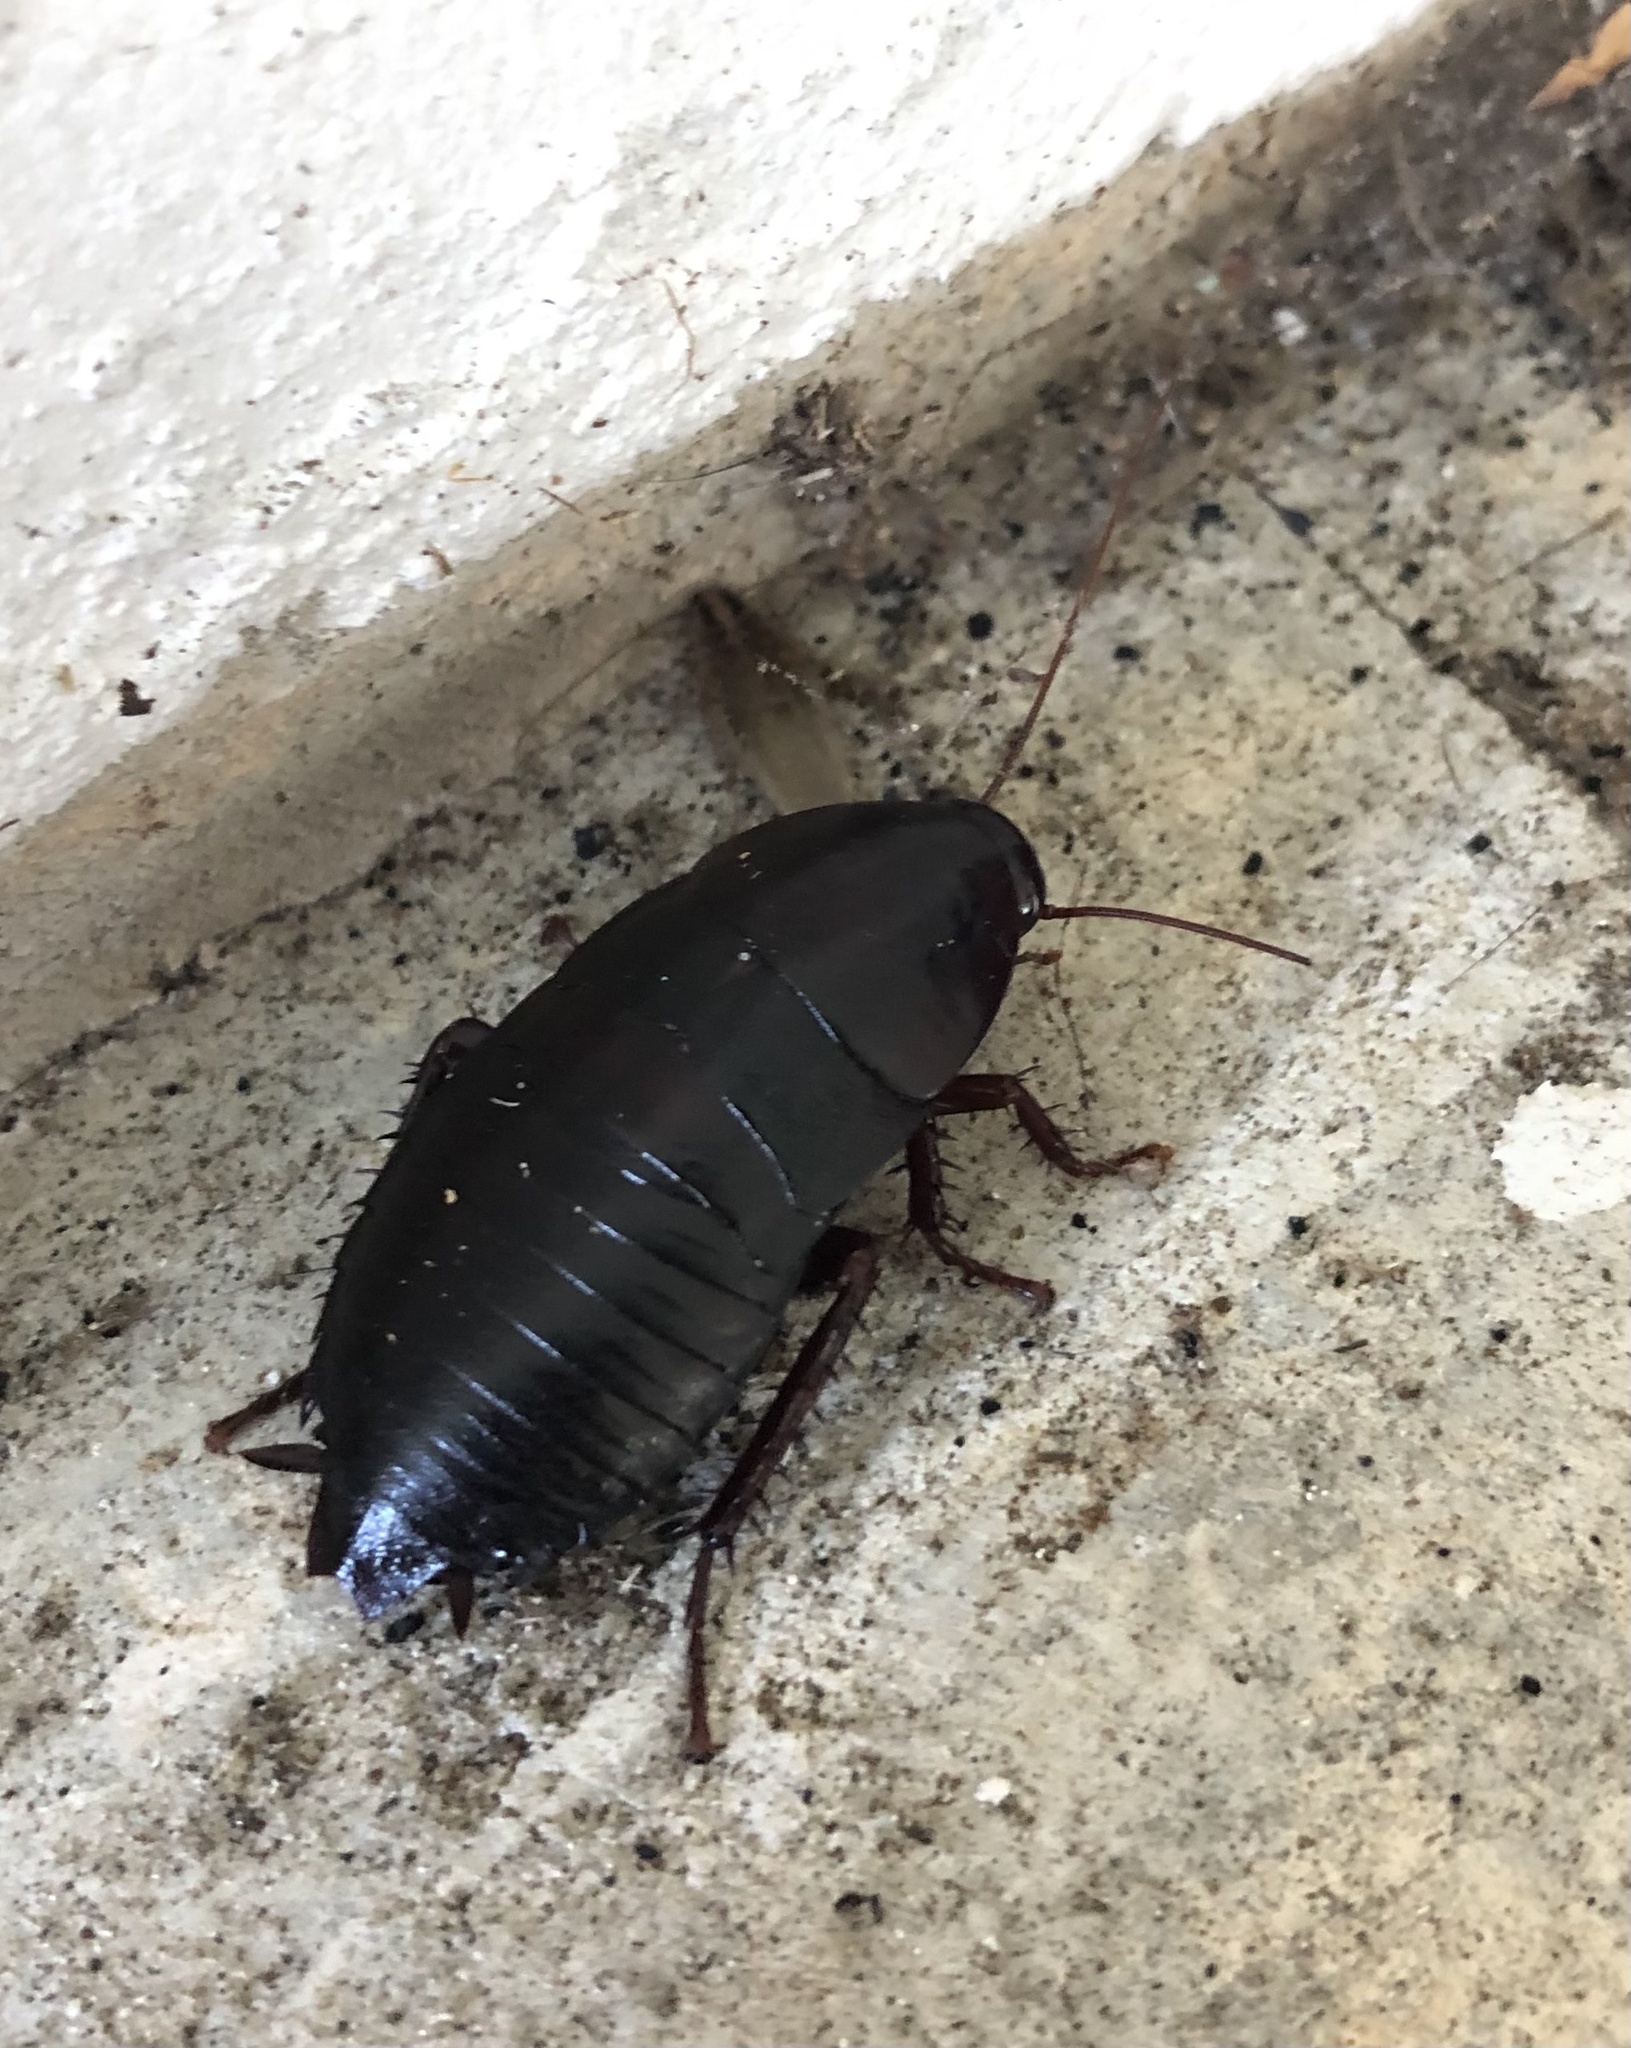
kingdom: Animalia
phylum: Arthropoda
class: Insecta
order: Blattodea
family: Blattidae
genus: Eurycotis
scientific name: Eurycotis floridana
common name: Florida cockroach
